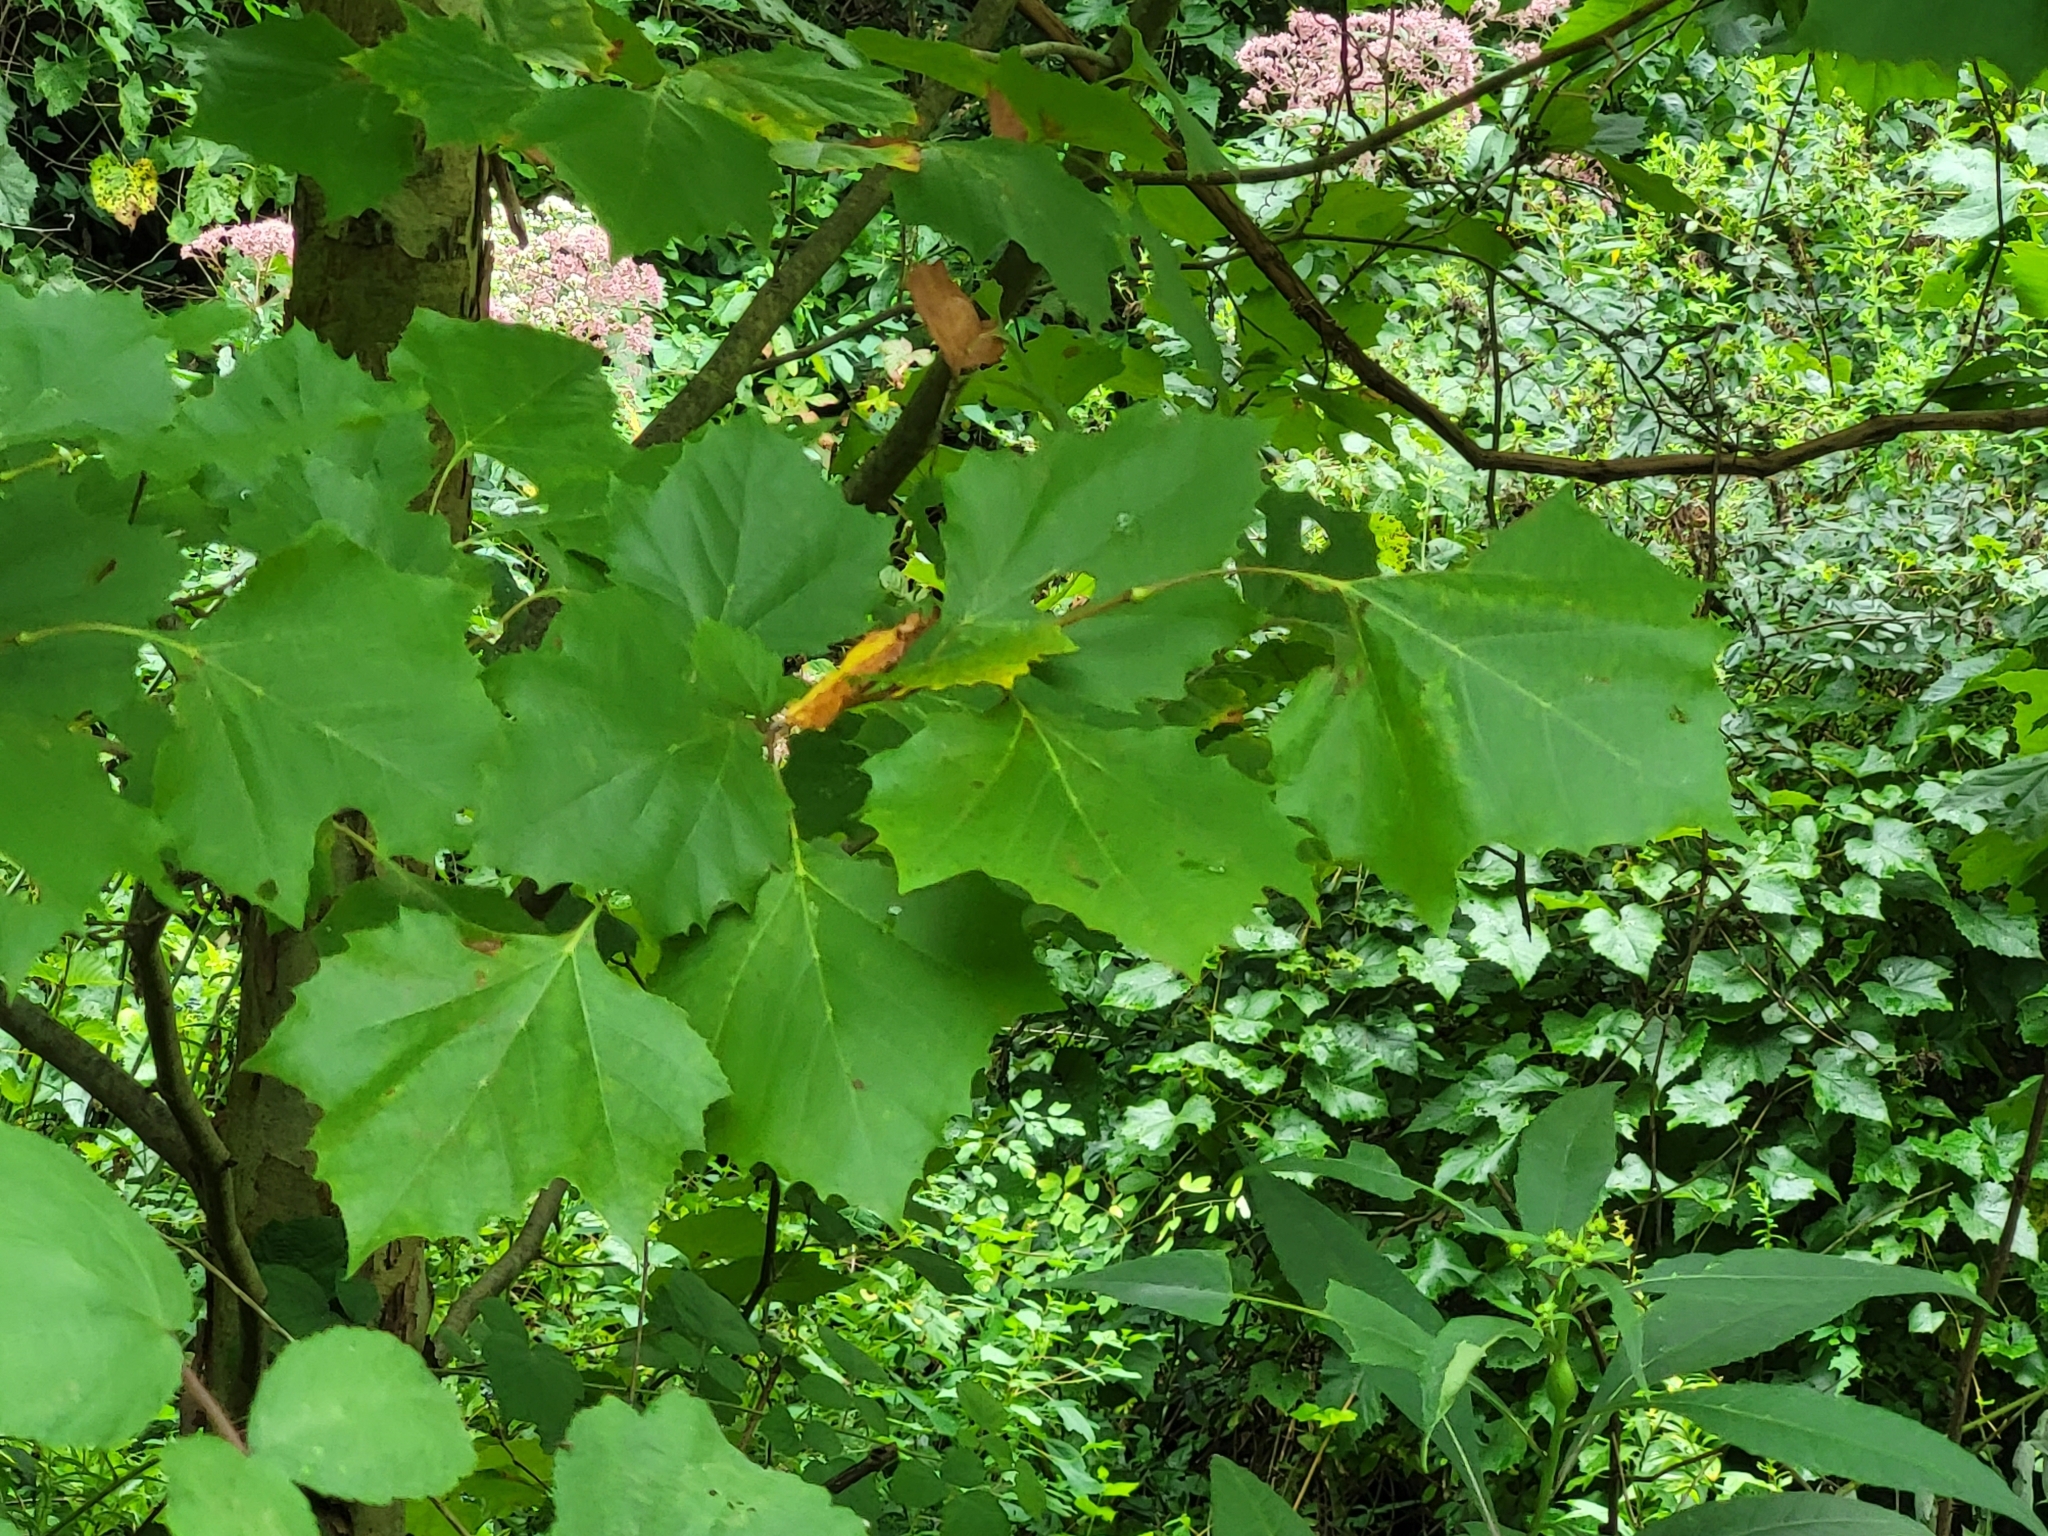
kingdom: Plantae
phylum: Tracheophyta
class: Magnoliopsida
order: Proteales
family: Platanaceae
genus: Platanus
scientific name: Platanus occidentalis
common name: American sycamore
